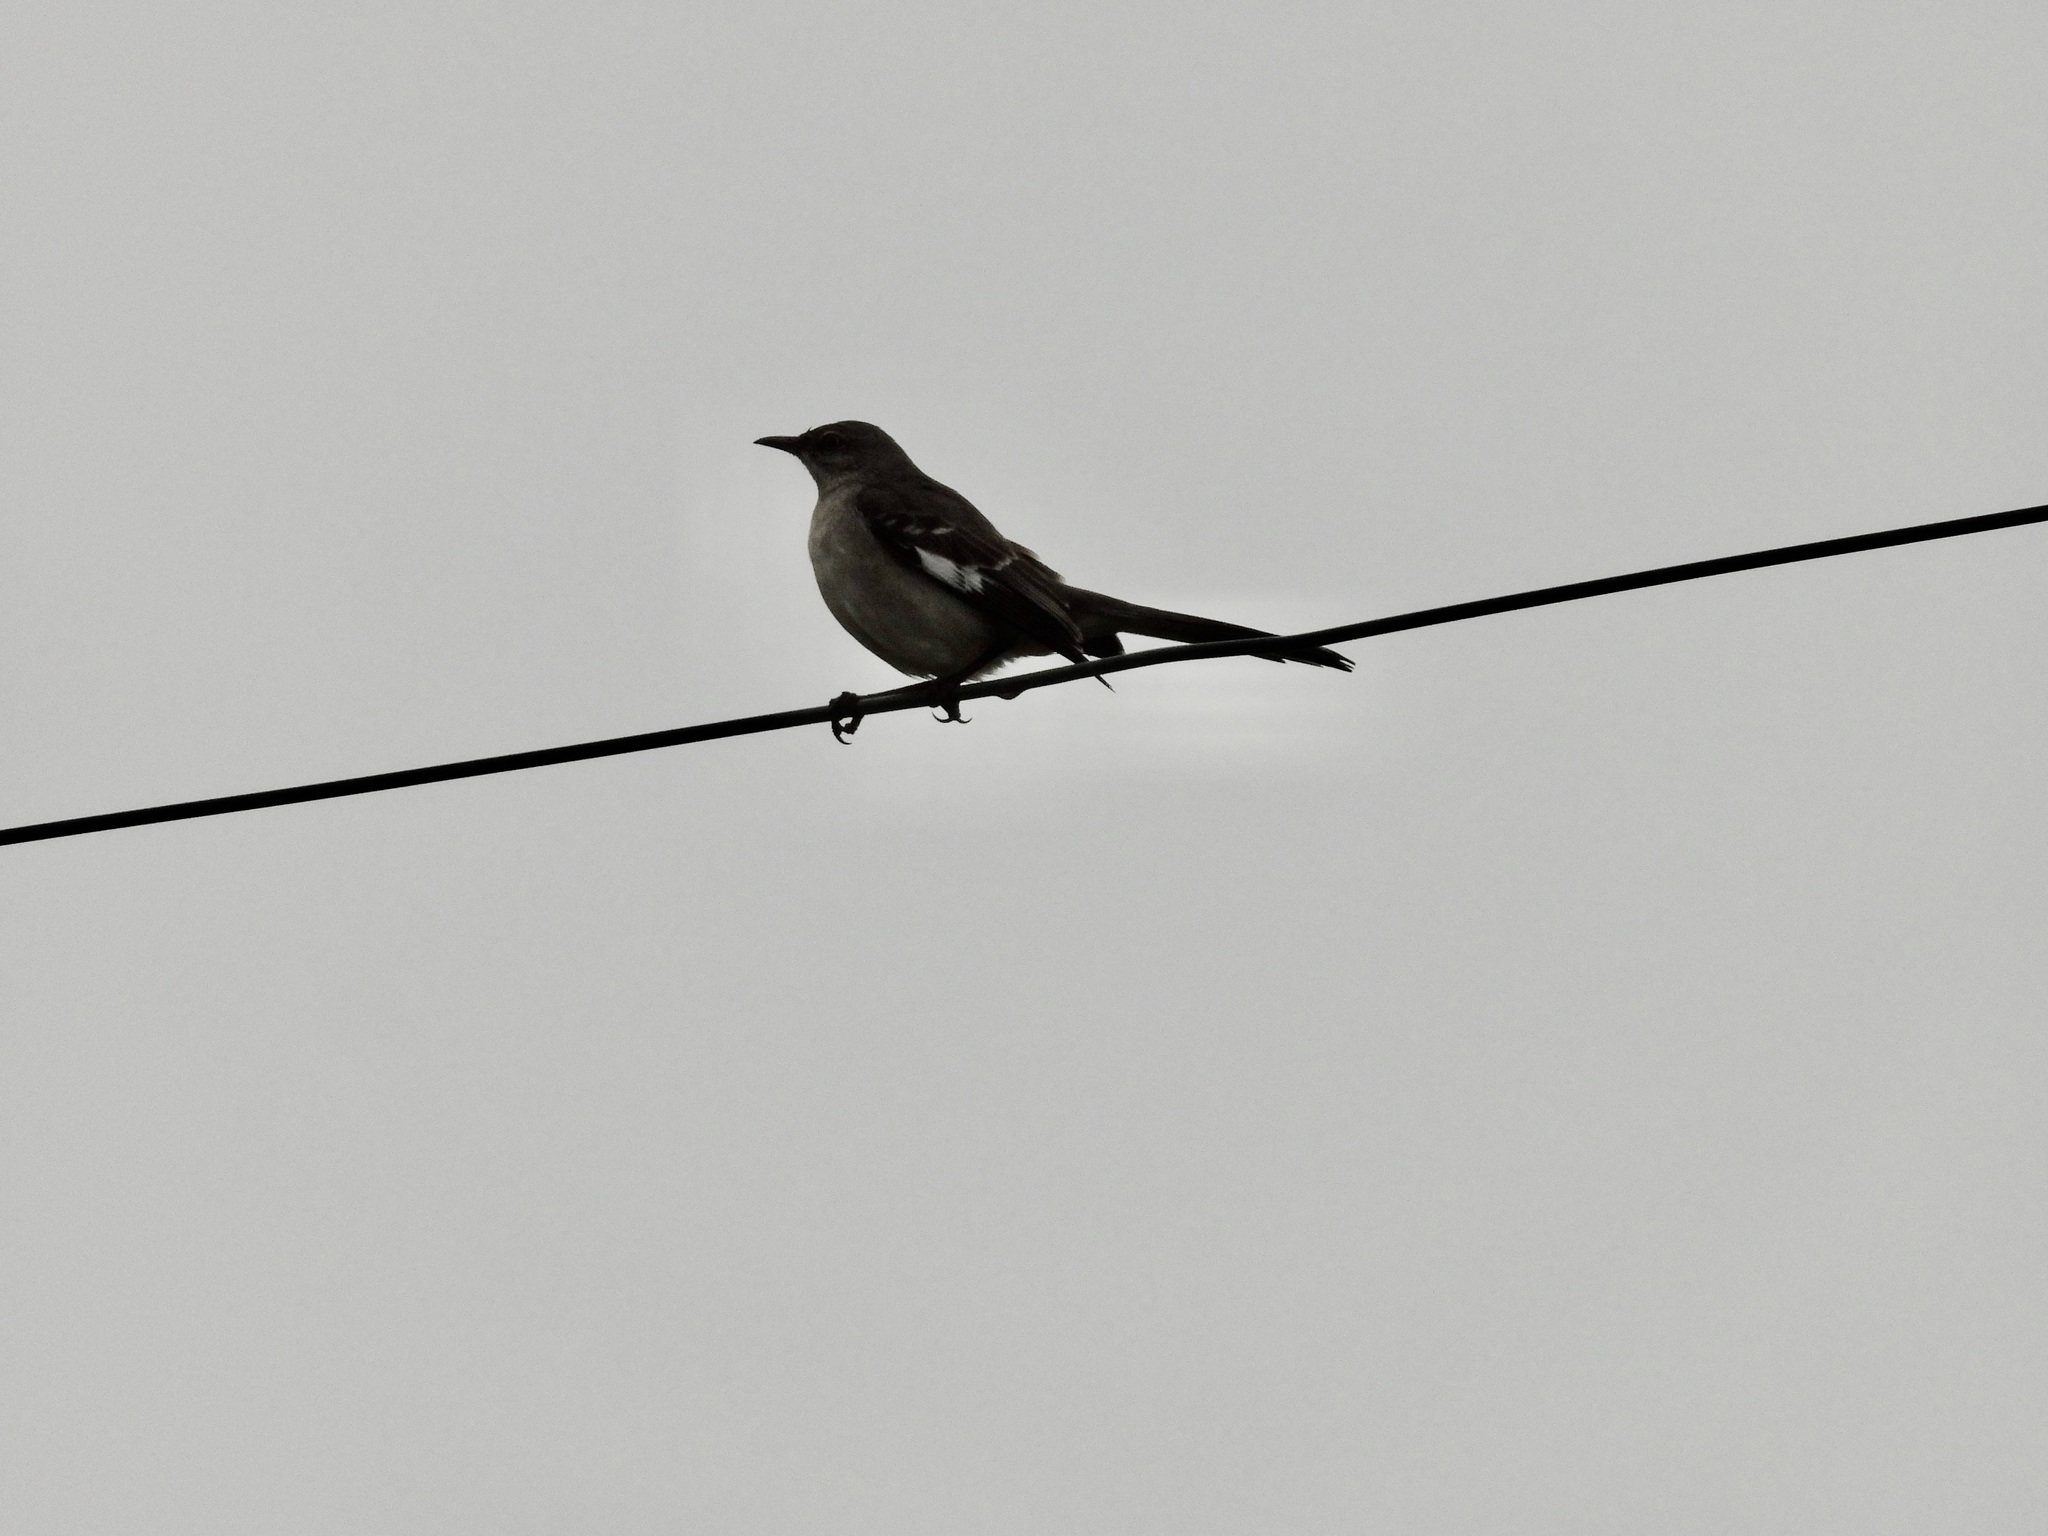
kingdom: Animalia
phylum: Chordata
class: Aves
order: Passeriformes
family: Mimidae
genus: Mimus
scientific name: Mimus polyglottos
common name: Northern mockingbird
